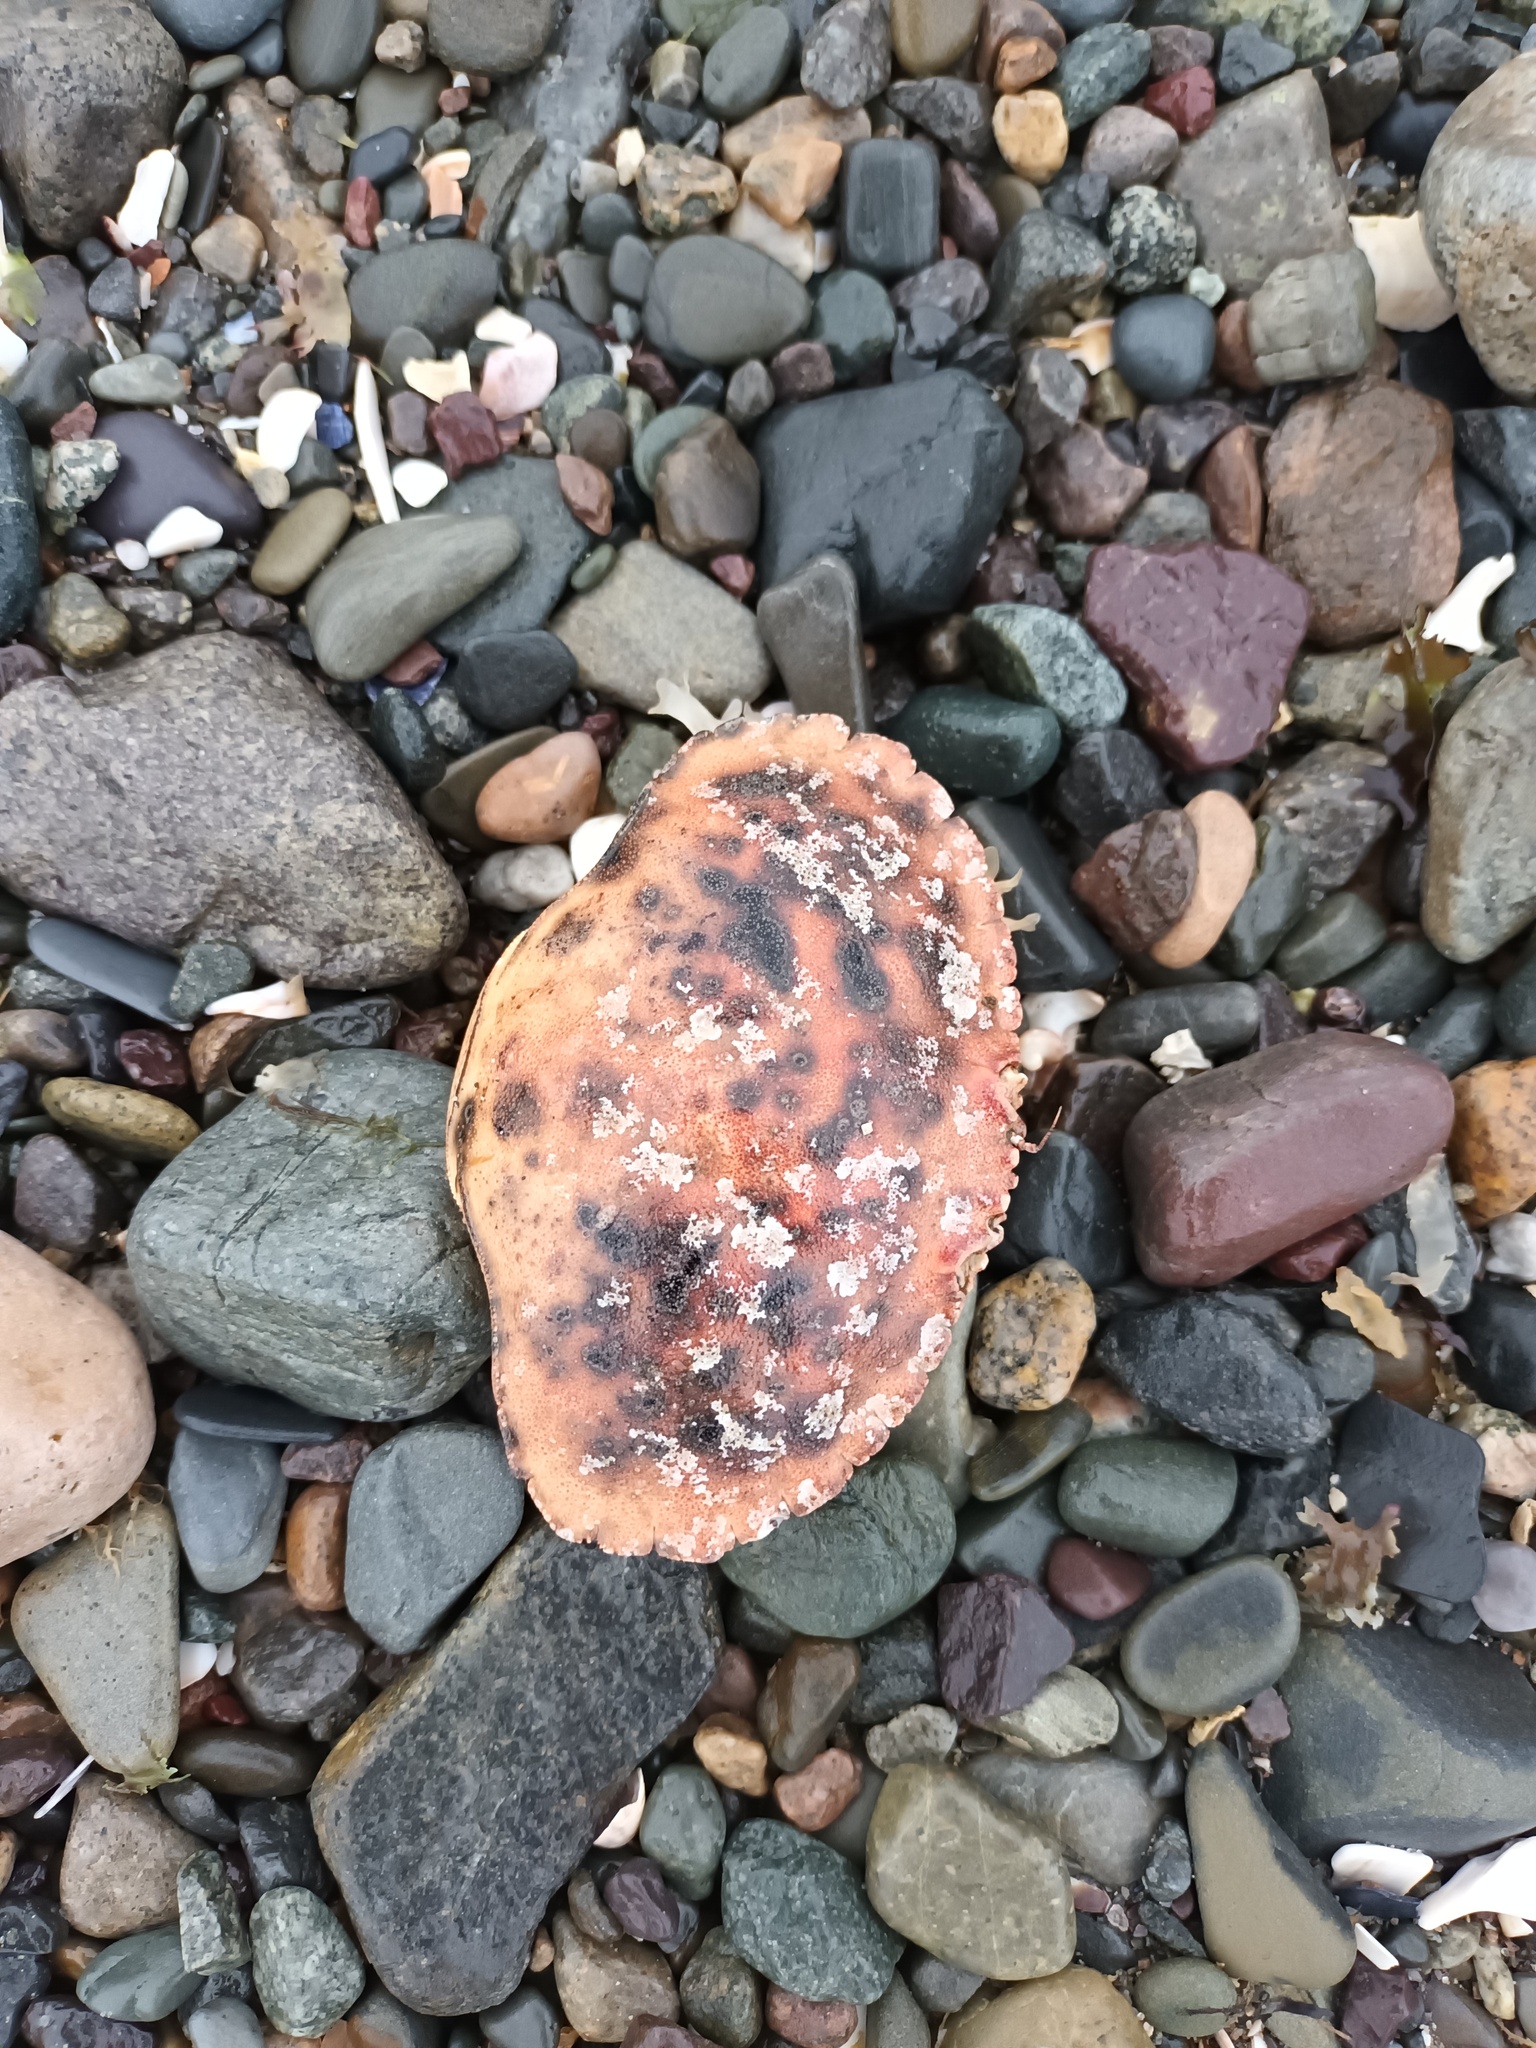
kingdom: Animalia
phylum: Arthropoda
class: Malacostraca
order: Decapoda
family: Cancridae
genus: Cancer
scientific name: Cancer borealis
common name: Jonah crab
